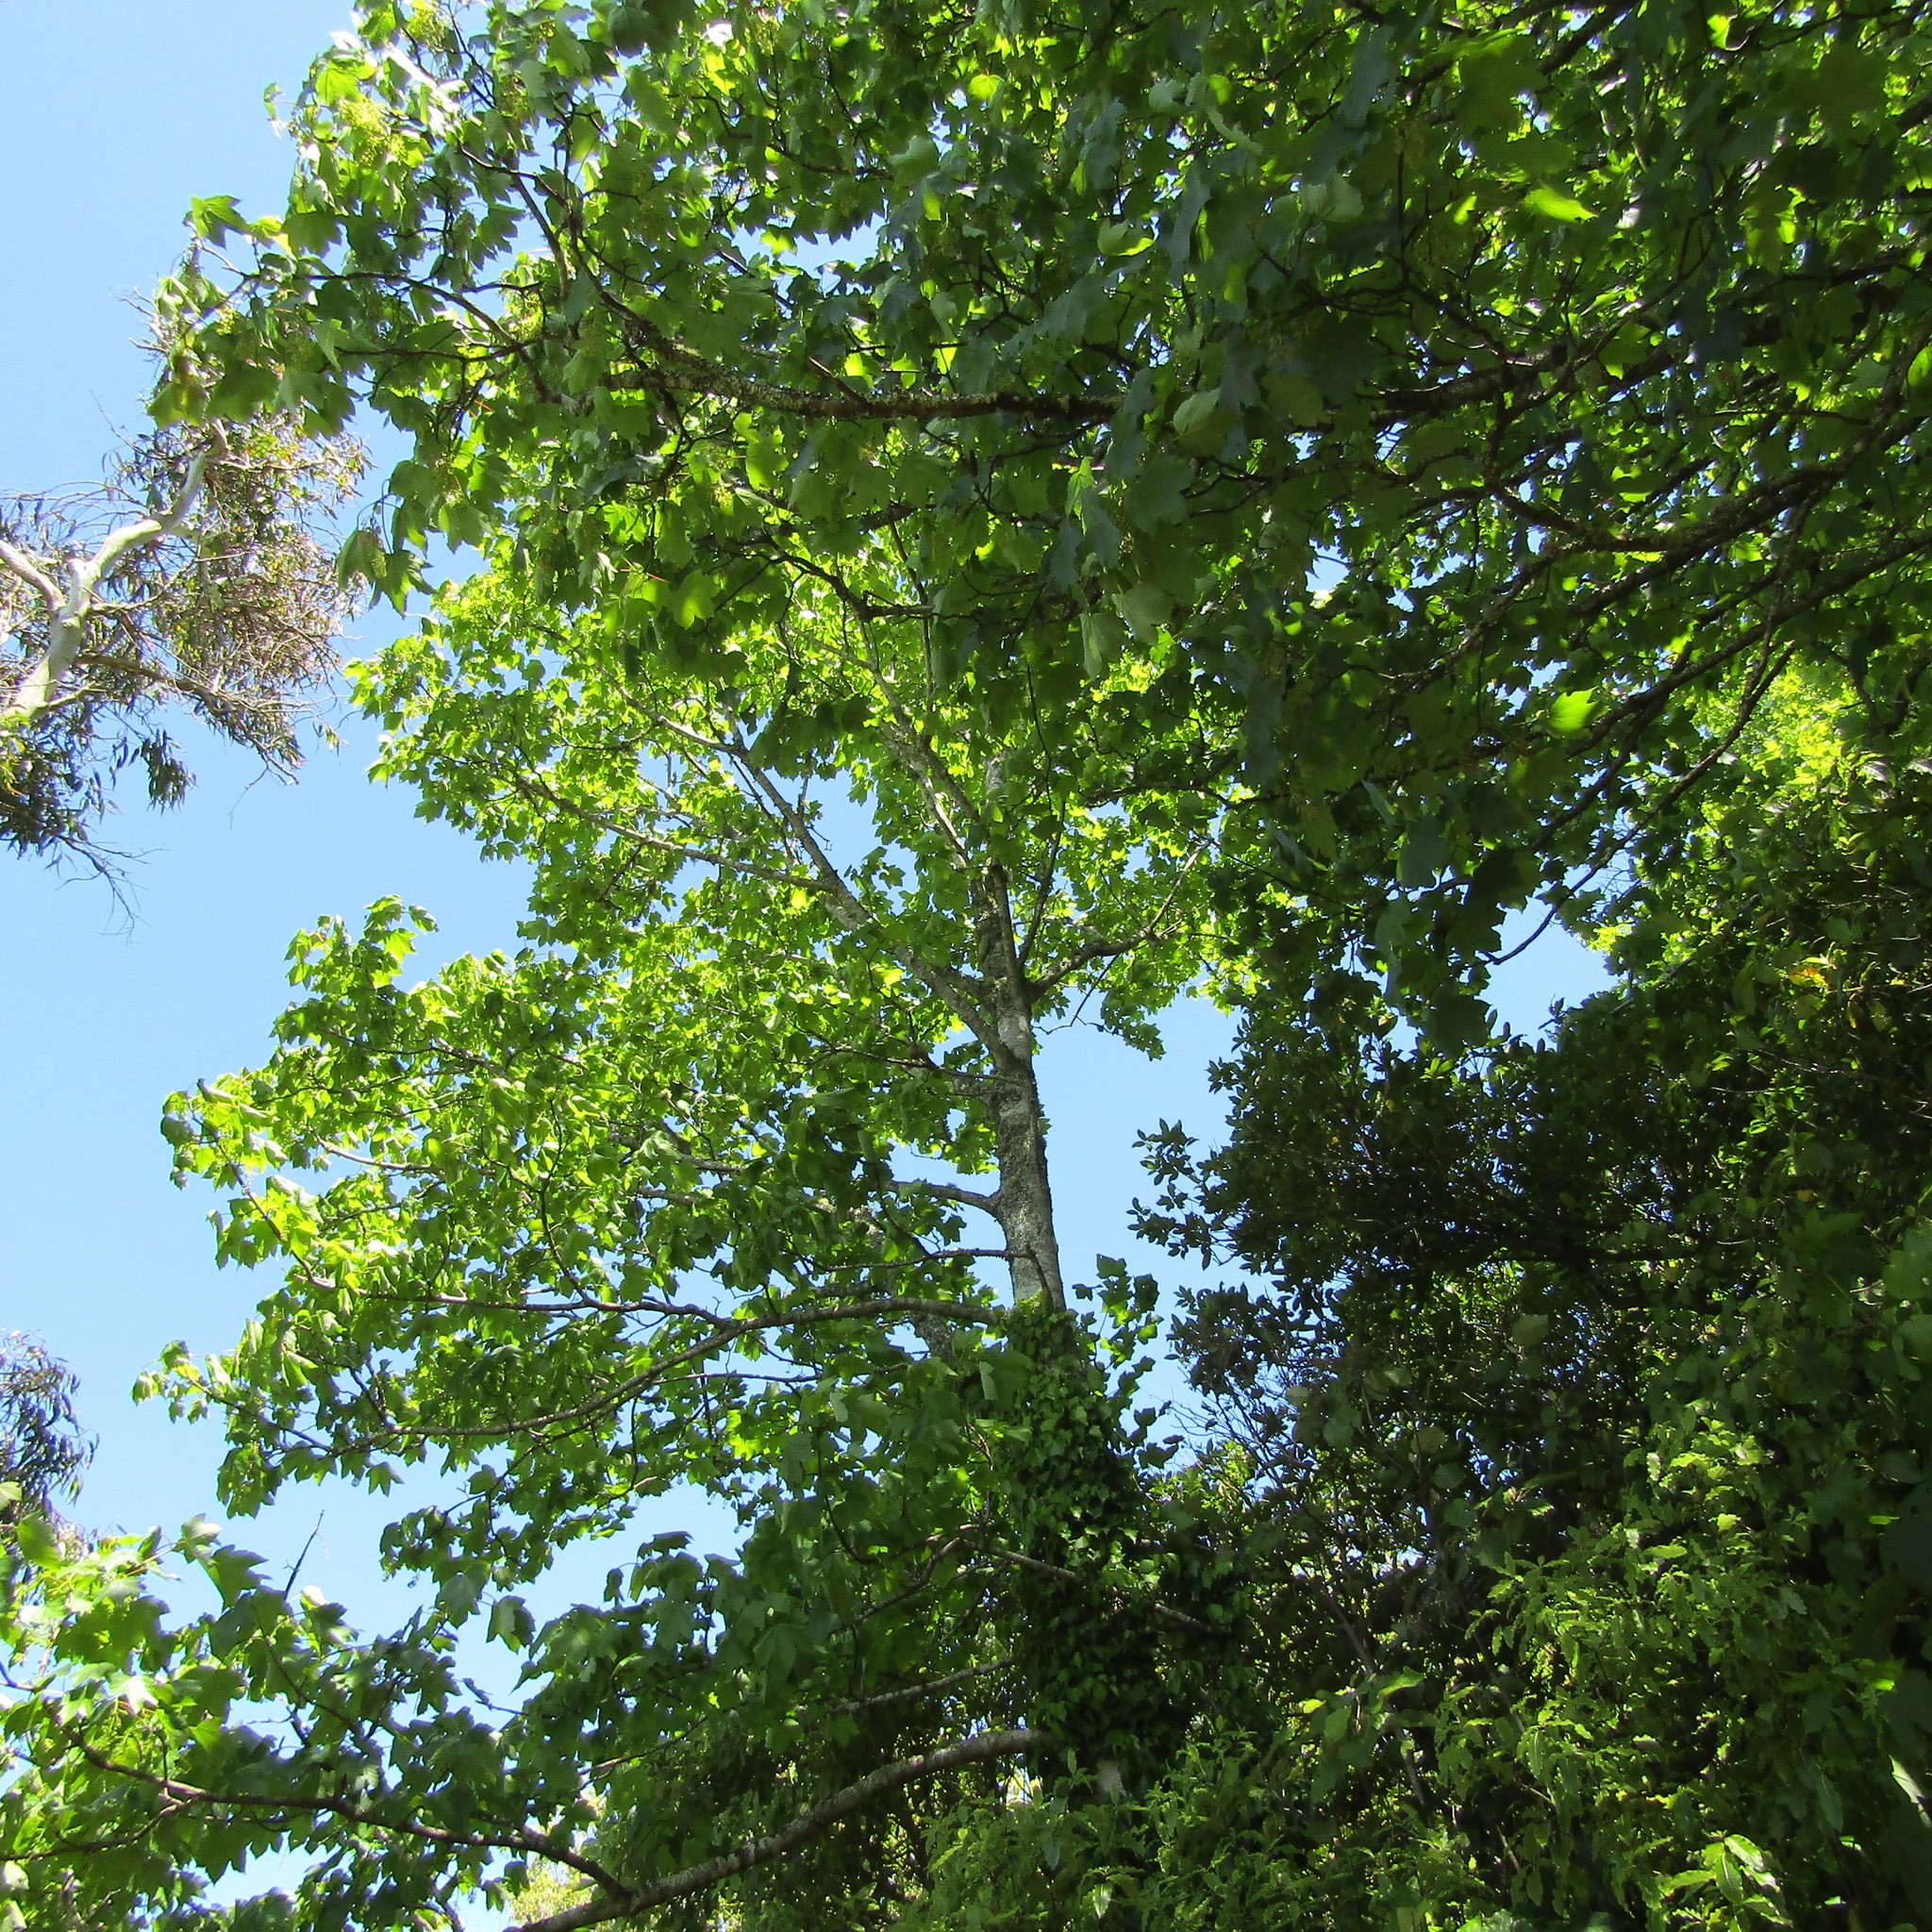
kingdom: Plantae
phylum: Tracheophyta
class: Magnoliopsida
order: Sapindales
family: Sapindaceae
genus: Acer
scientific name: Acer pseudoplatanus
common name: Sycamore
